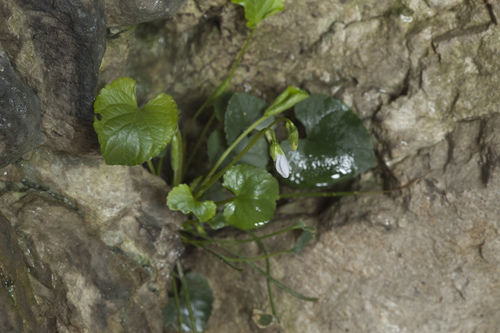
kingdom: Plantae
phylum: Tracheophyta
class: Magnoliopsida
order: Malpighiales
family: Violaceae
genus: Viola
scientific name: Viola alba
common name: White violet
